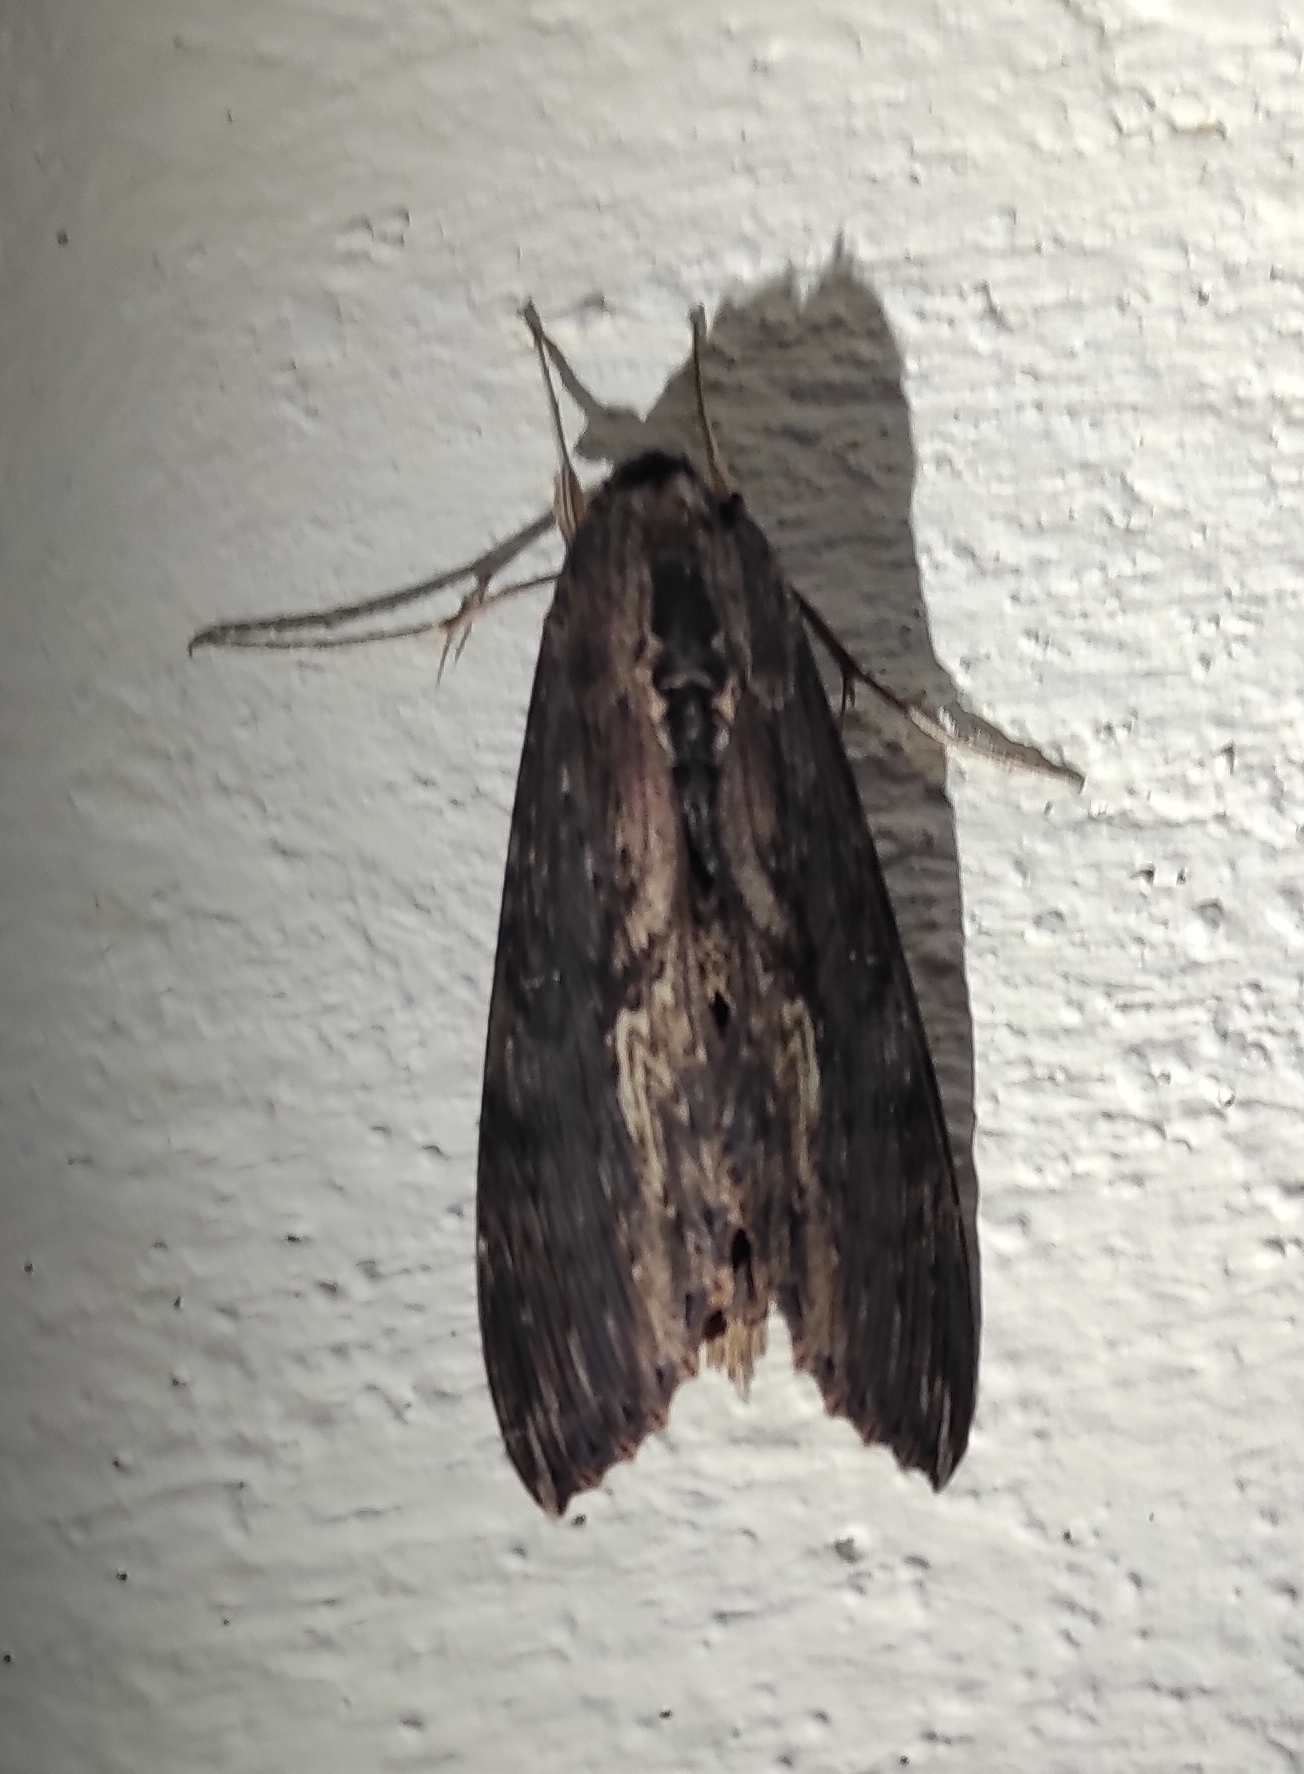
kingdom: Animalia
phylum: Arthropoda
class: Insecta
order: Lepidoptera
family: Sphingidae
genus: Erinnyis
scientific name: Erinnyis alope
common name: Alope sphinx
